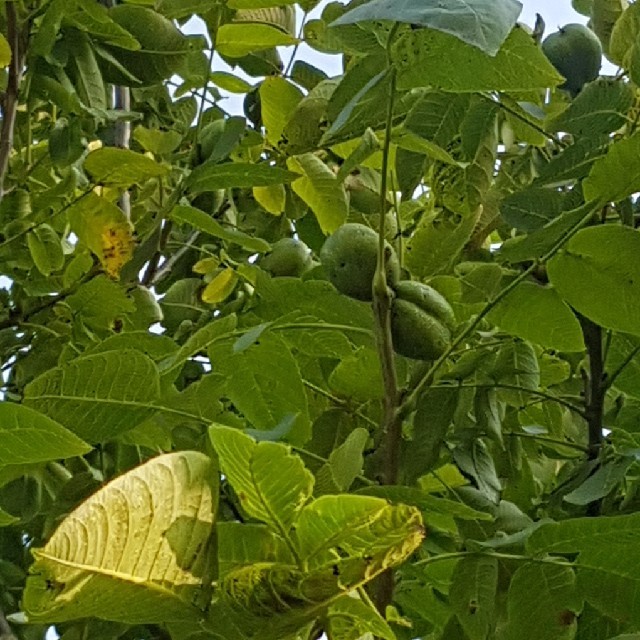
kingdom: Plantae
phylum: Tracheophyta
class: Magnoliopsida
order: Fagales
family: Juglandaceae
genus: Juglans
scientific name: Juglans regia
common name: Walnut
